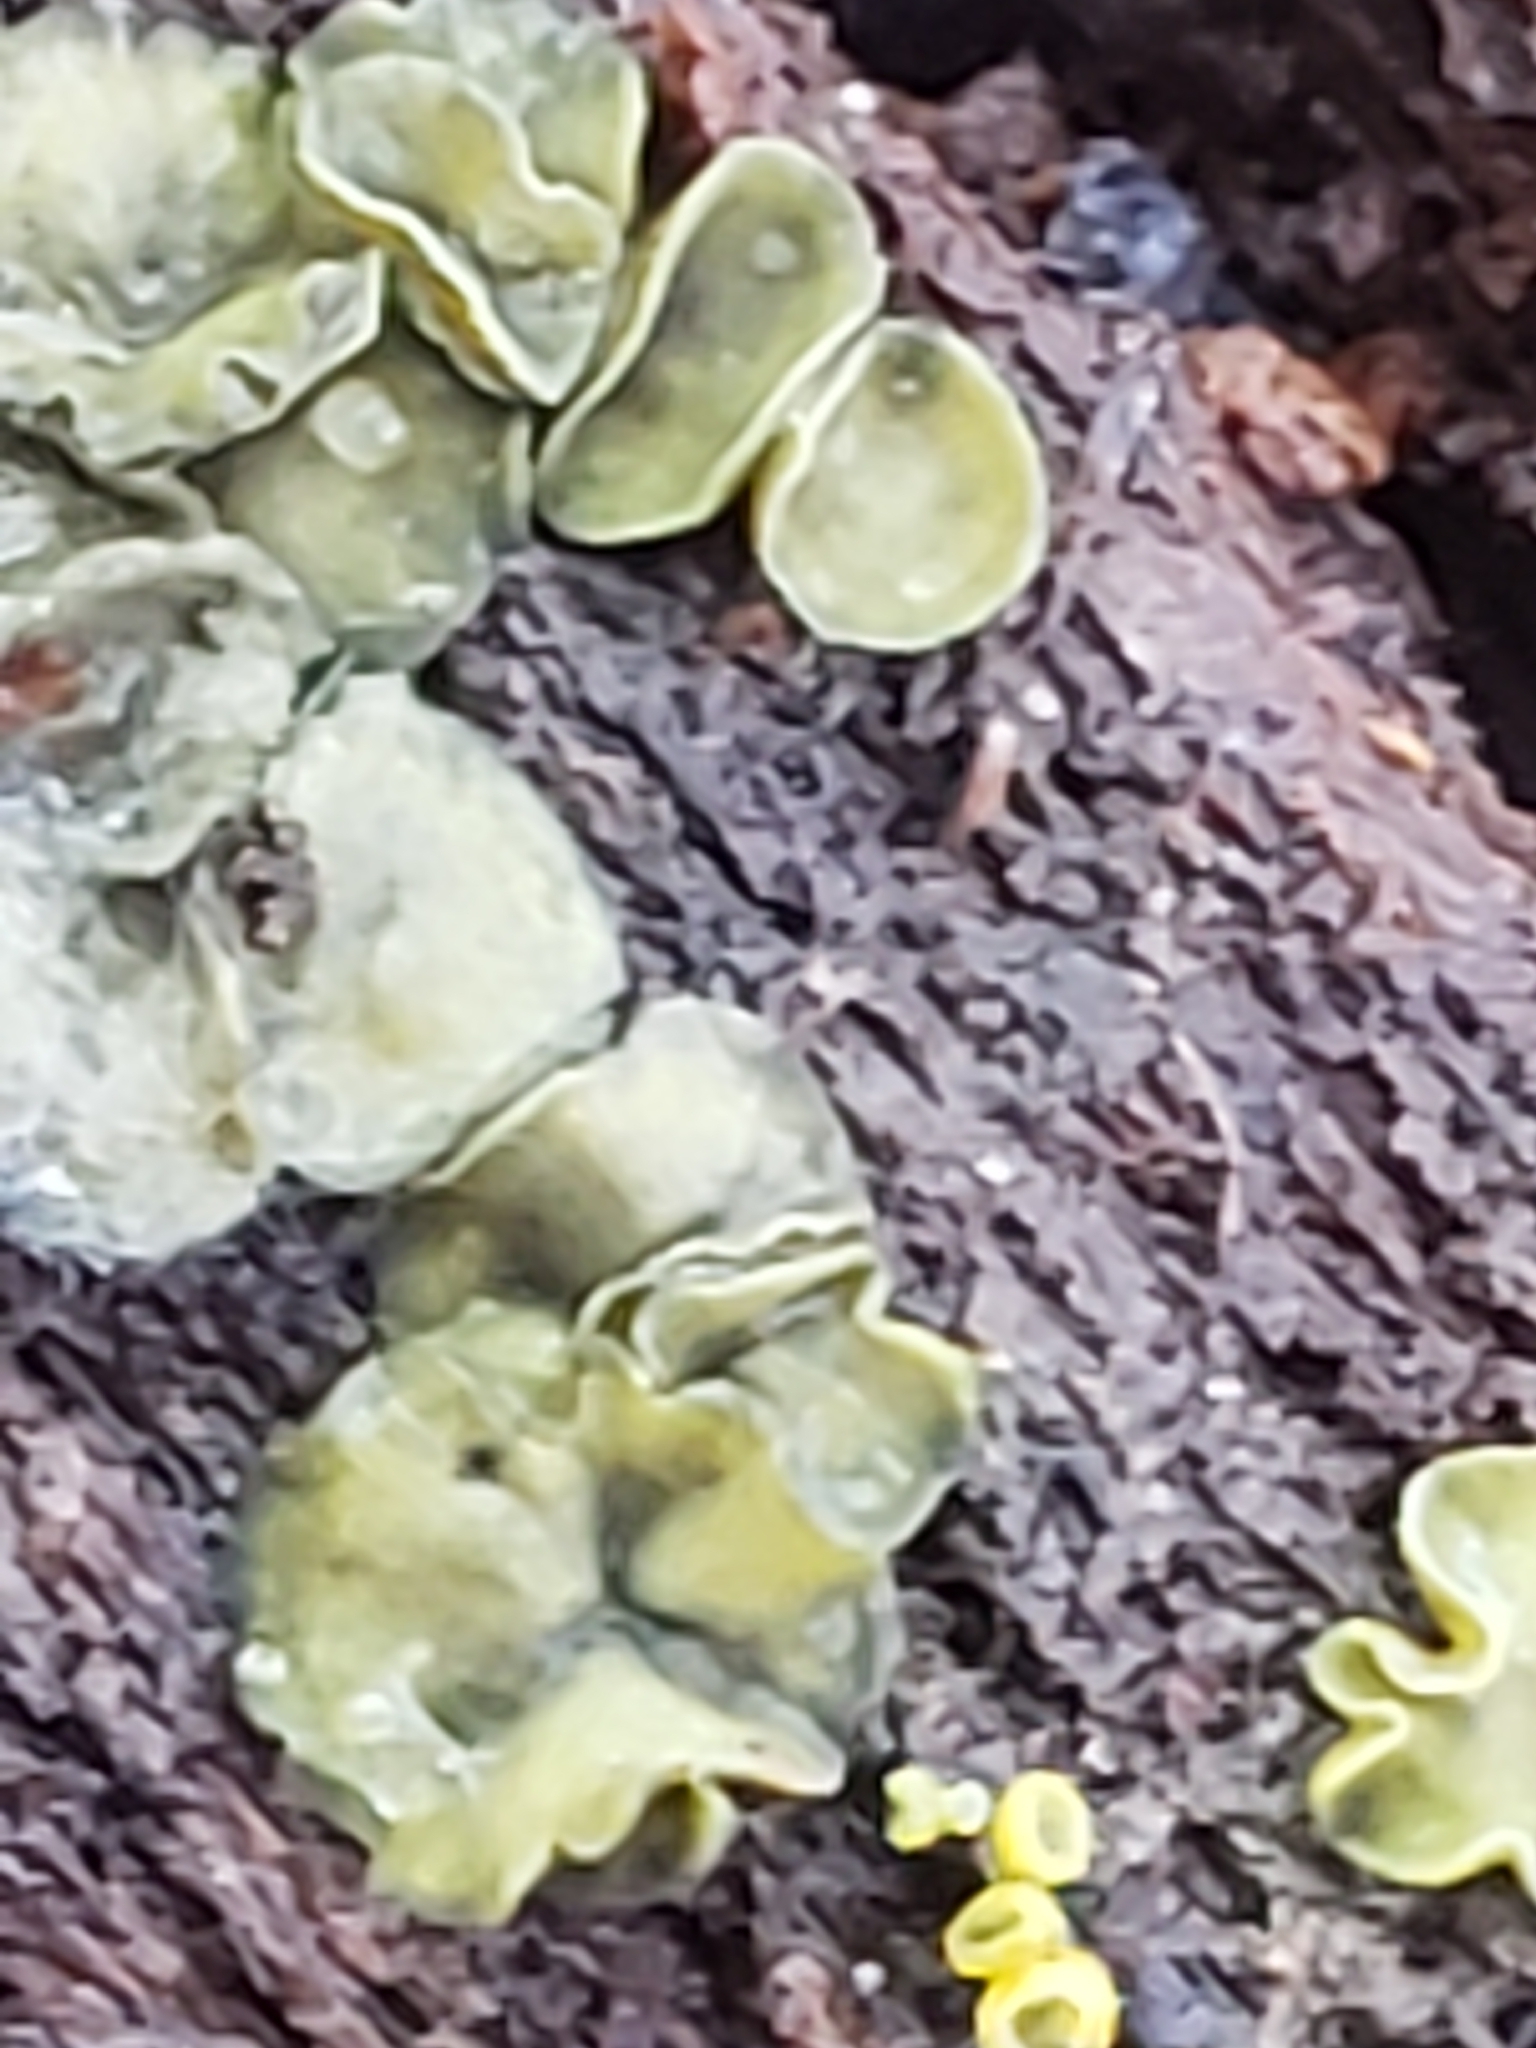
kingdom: Fungi
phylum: Ascomycota
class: Leotiomycetes
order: Helotiales
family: Chlorospleniaceae
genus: Chlorosplenium
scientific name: Chlorosplenium chlora
